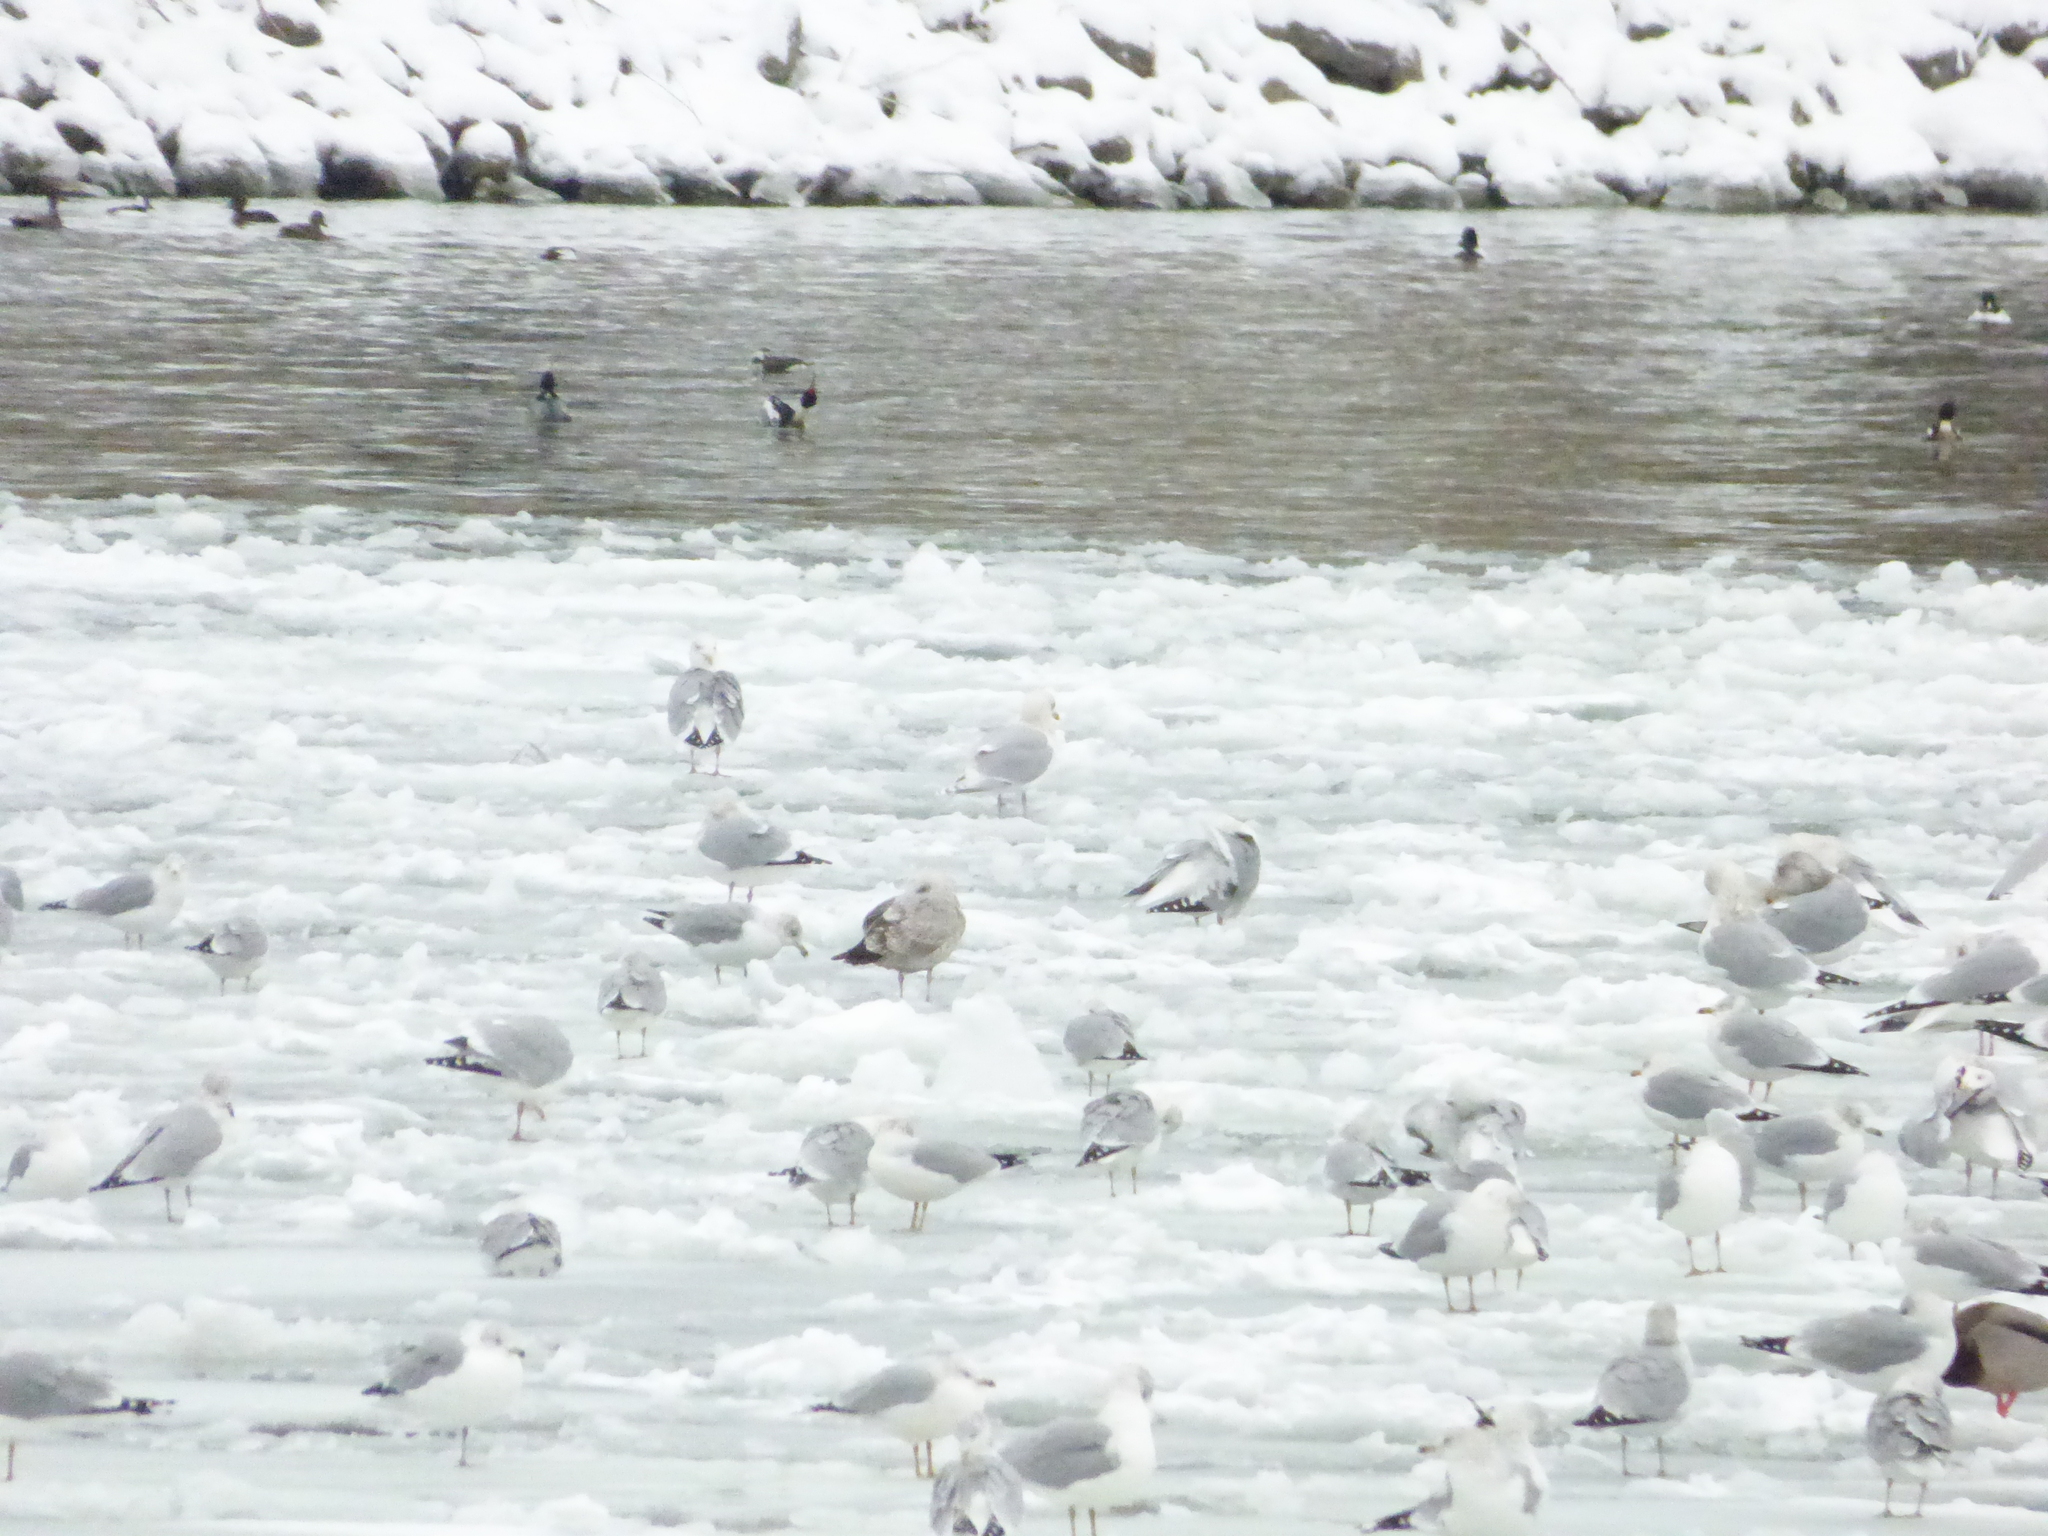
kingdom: Animalia
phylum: Chordata
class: Aves
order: Charadriiformes
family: Laridae
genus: Larus
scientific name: Larus glaucoides
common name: Iceland gull
